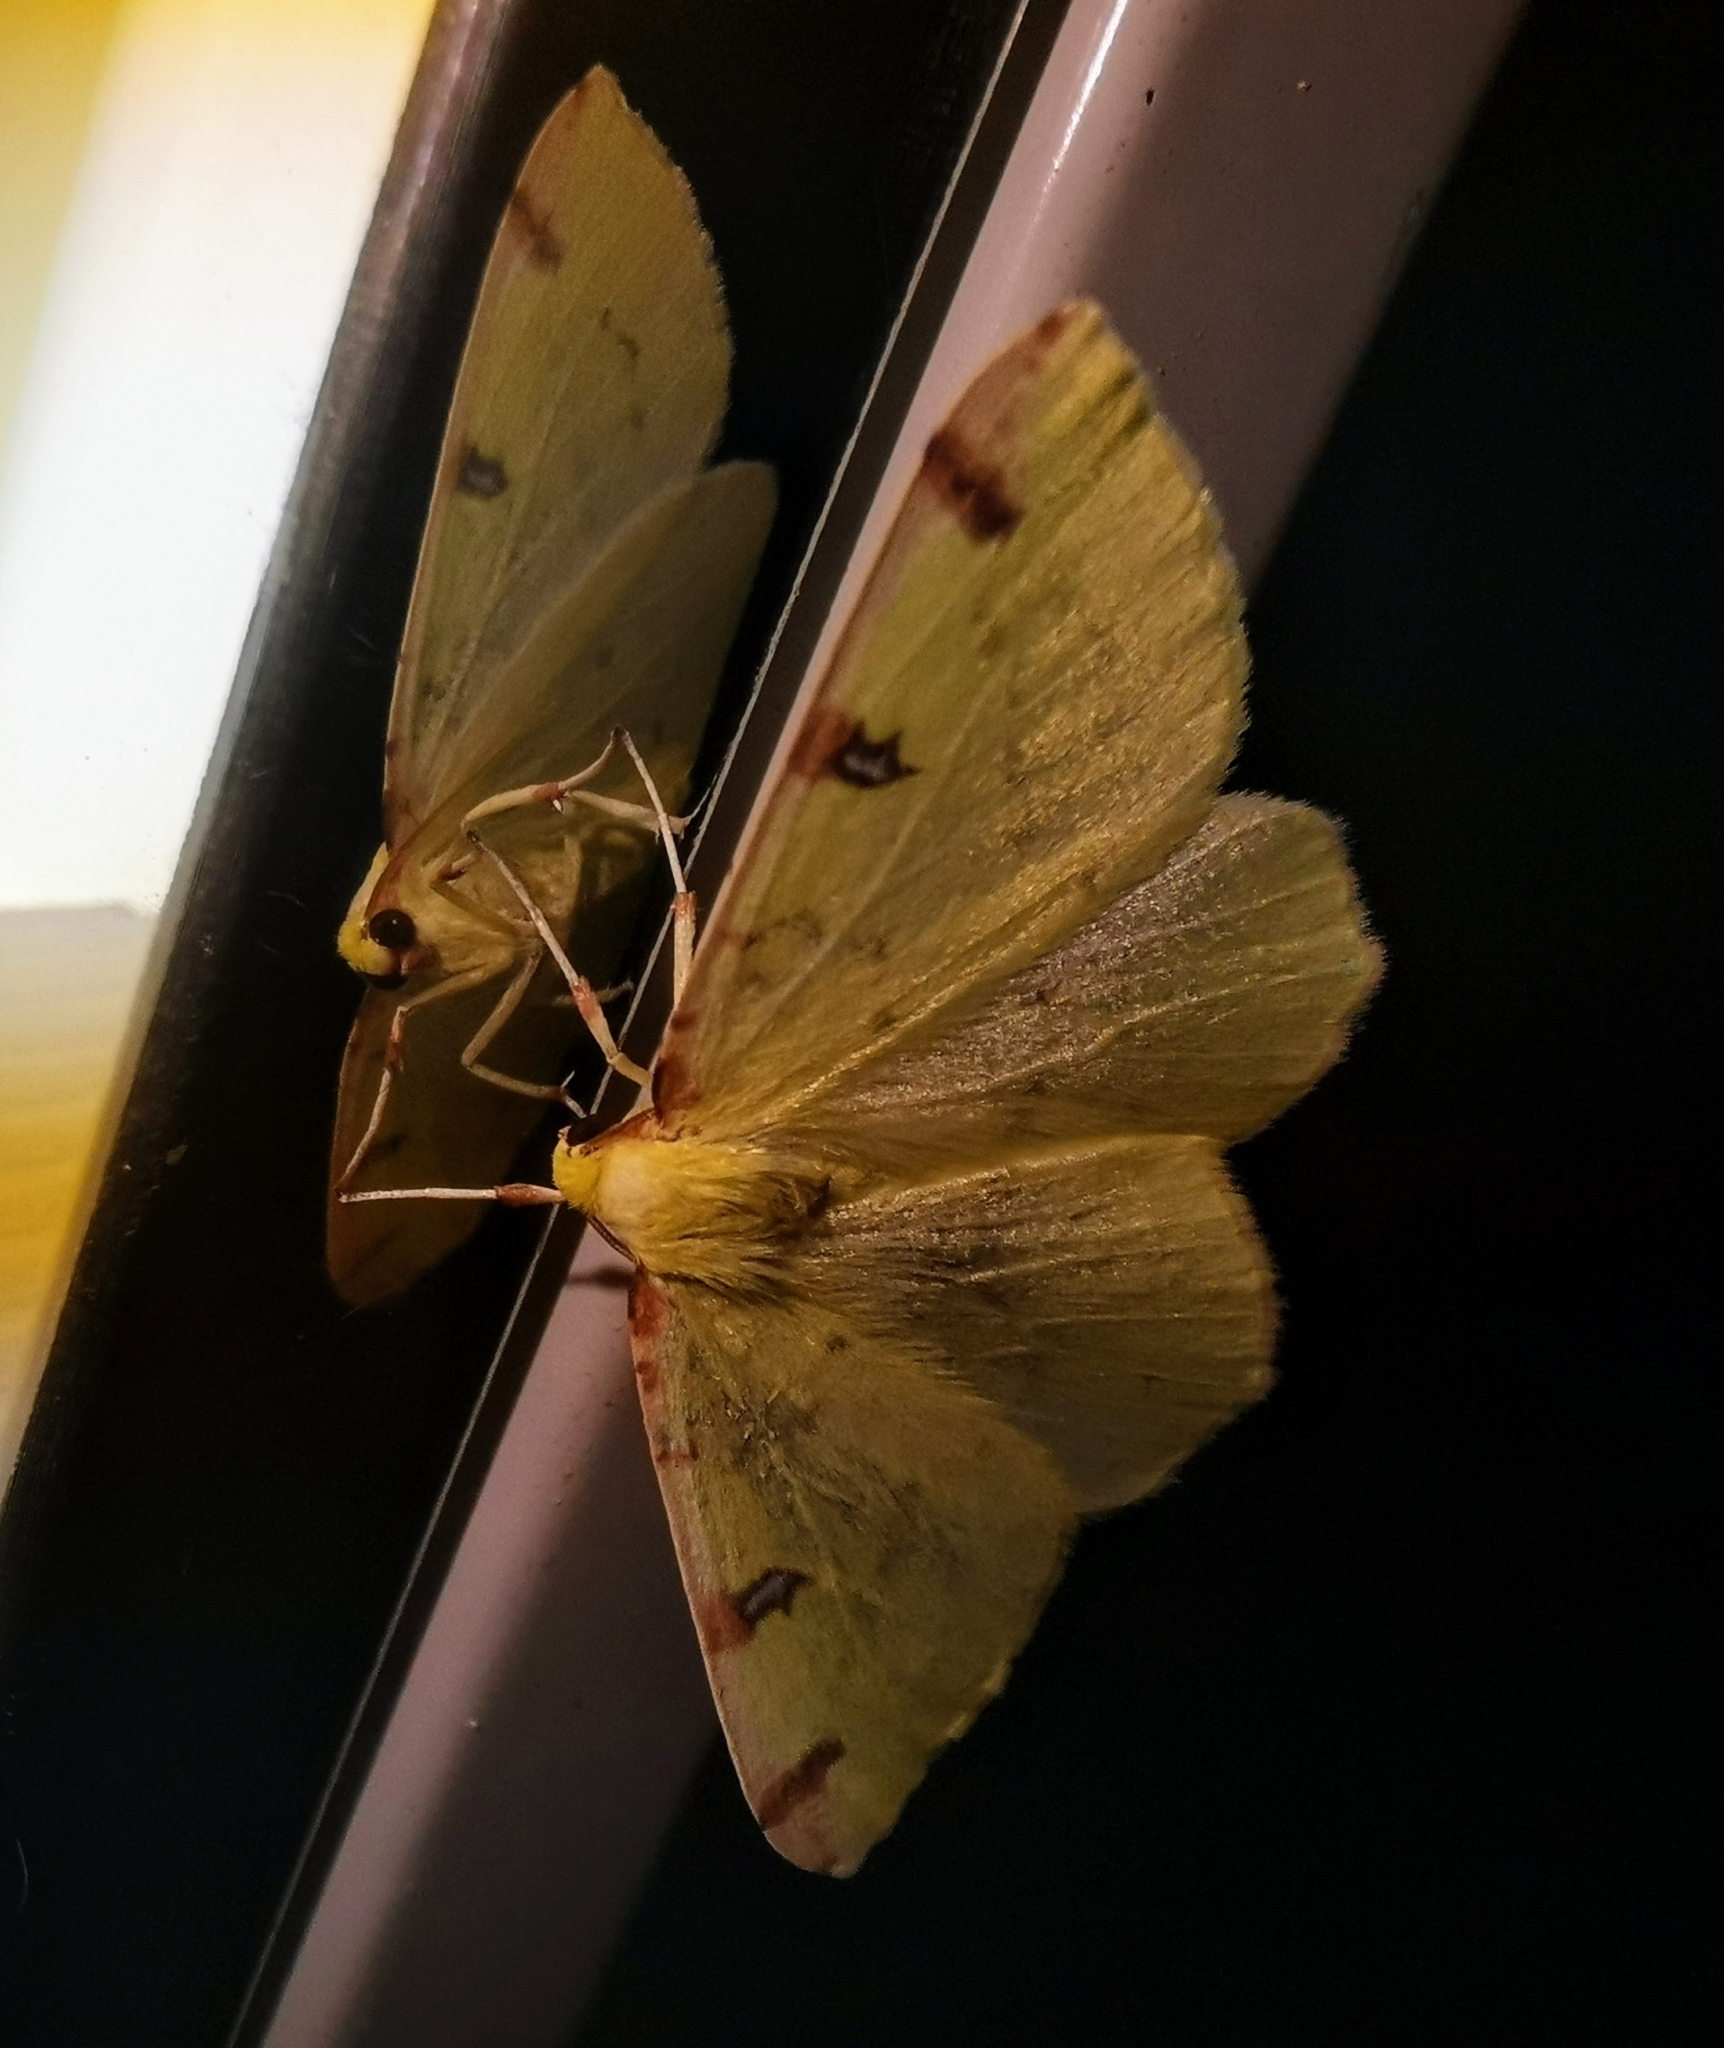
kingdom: Animalia
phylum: Arthropoda
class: Insecta
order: Lepidoptera
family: Geometridae
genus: Opisthograptis
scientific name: Opisthograptis luteolata
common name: Brimstone moth
